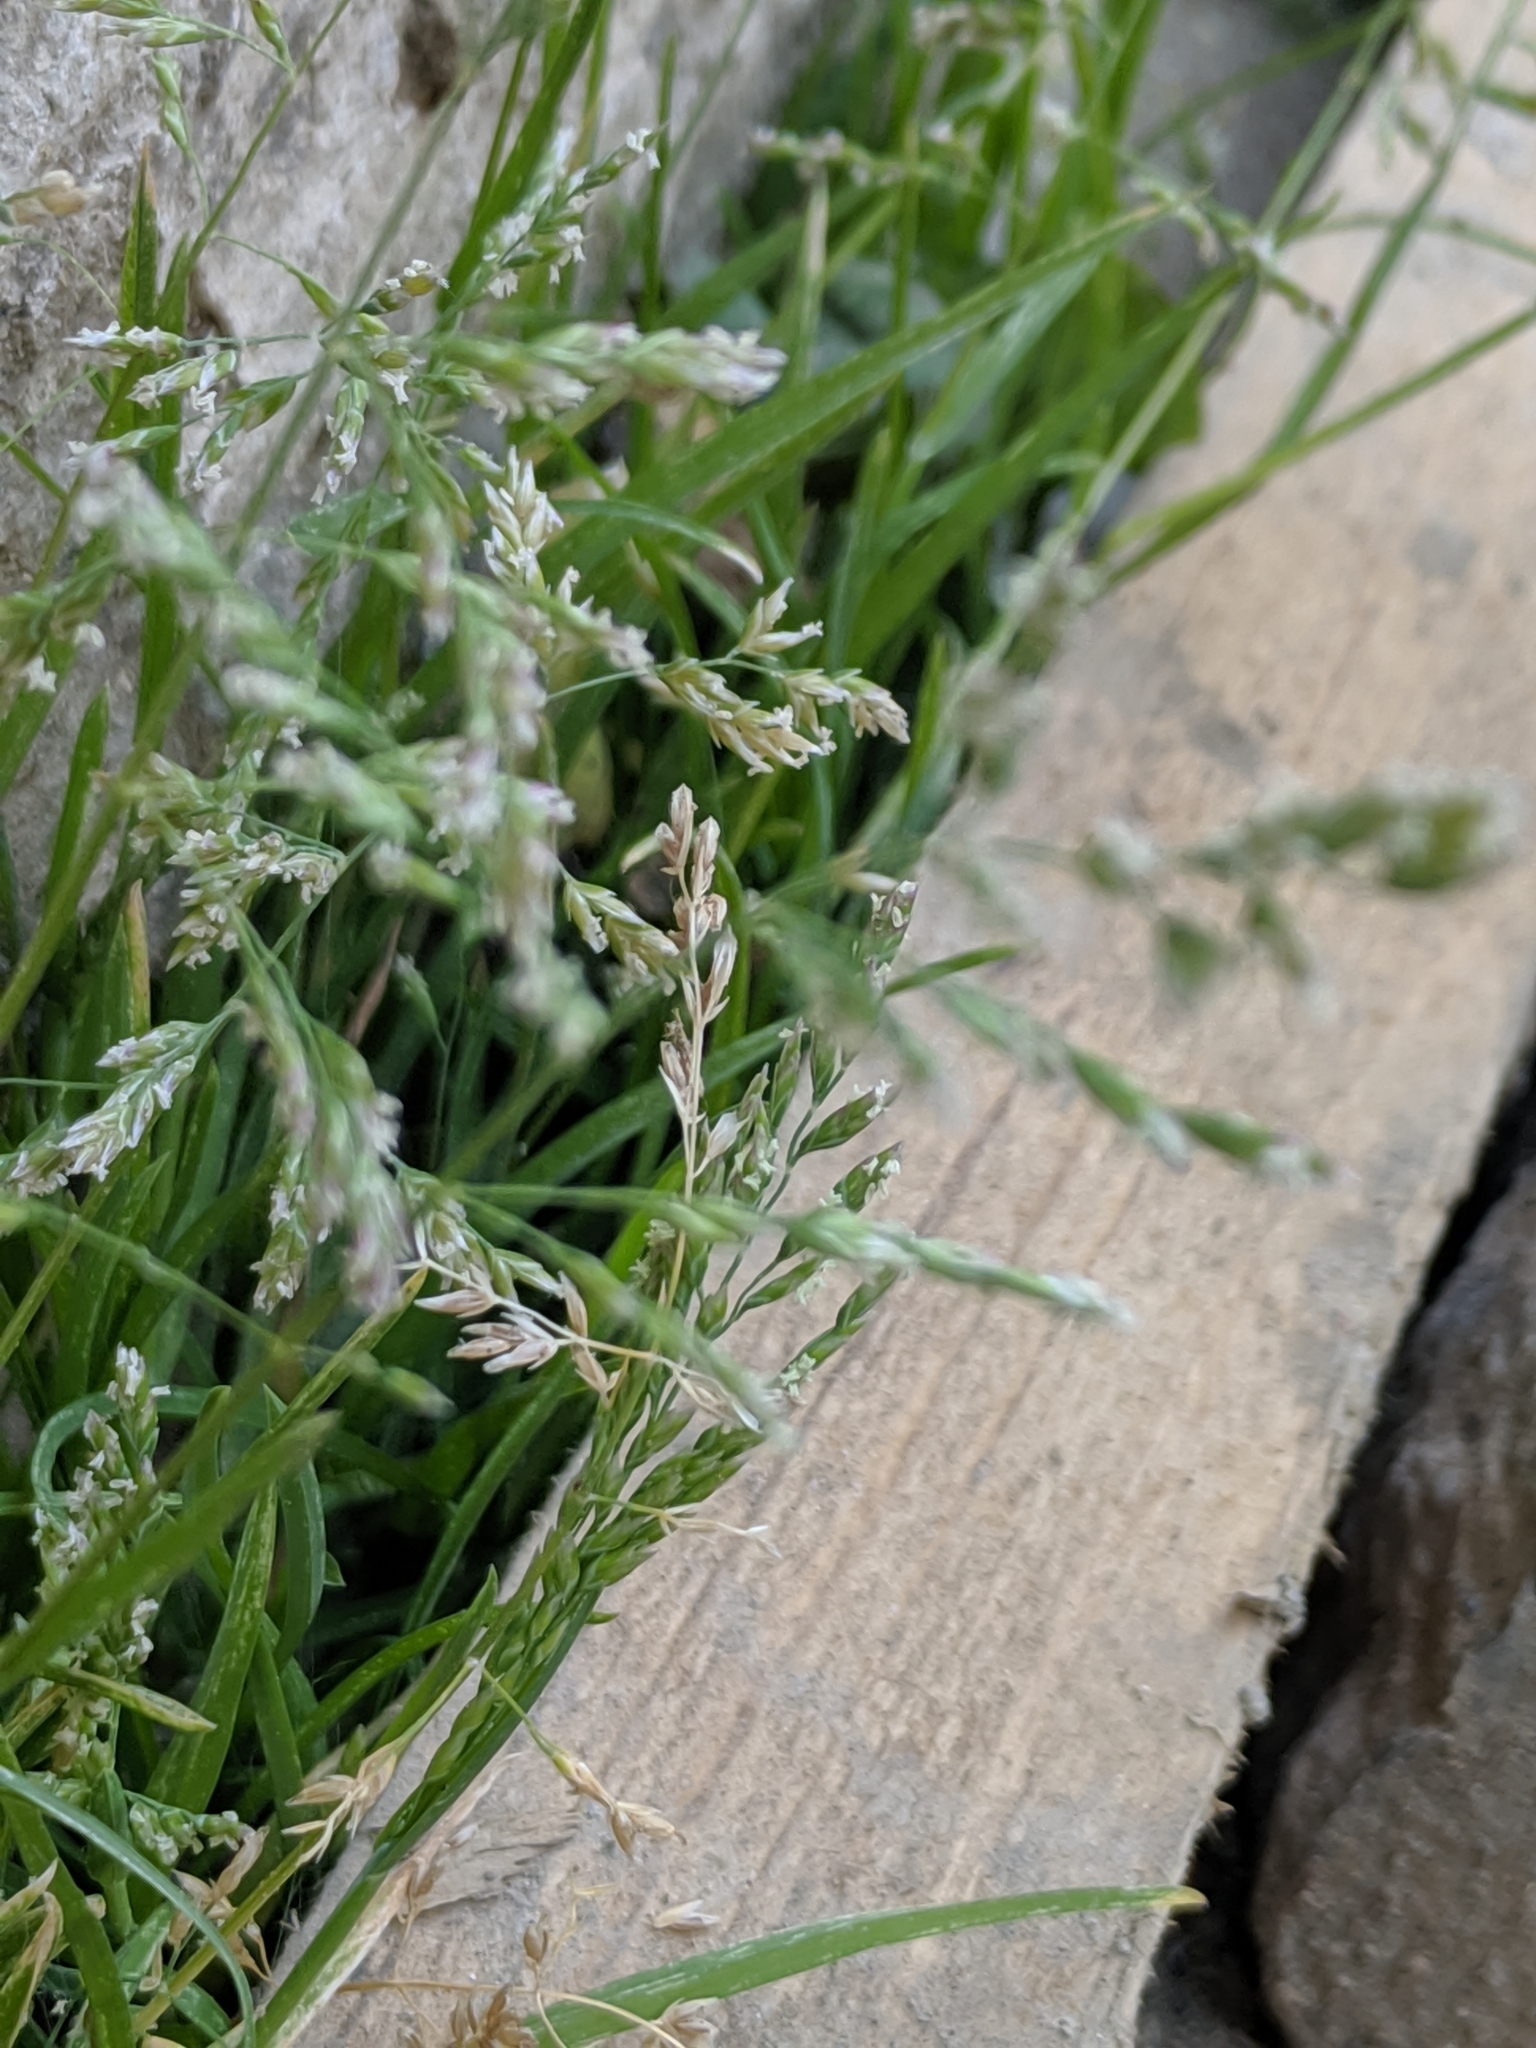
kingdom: Plantae
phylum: Tracheophyta
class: Liliopsida
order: Poales
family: Poaceae
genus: Poa
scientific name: Poa annua
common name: Annual bluegrass
